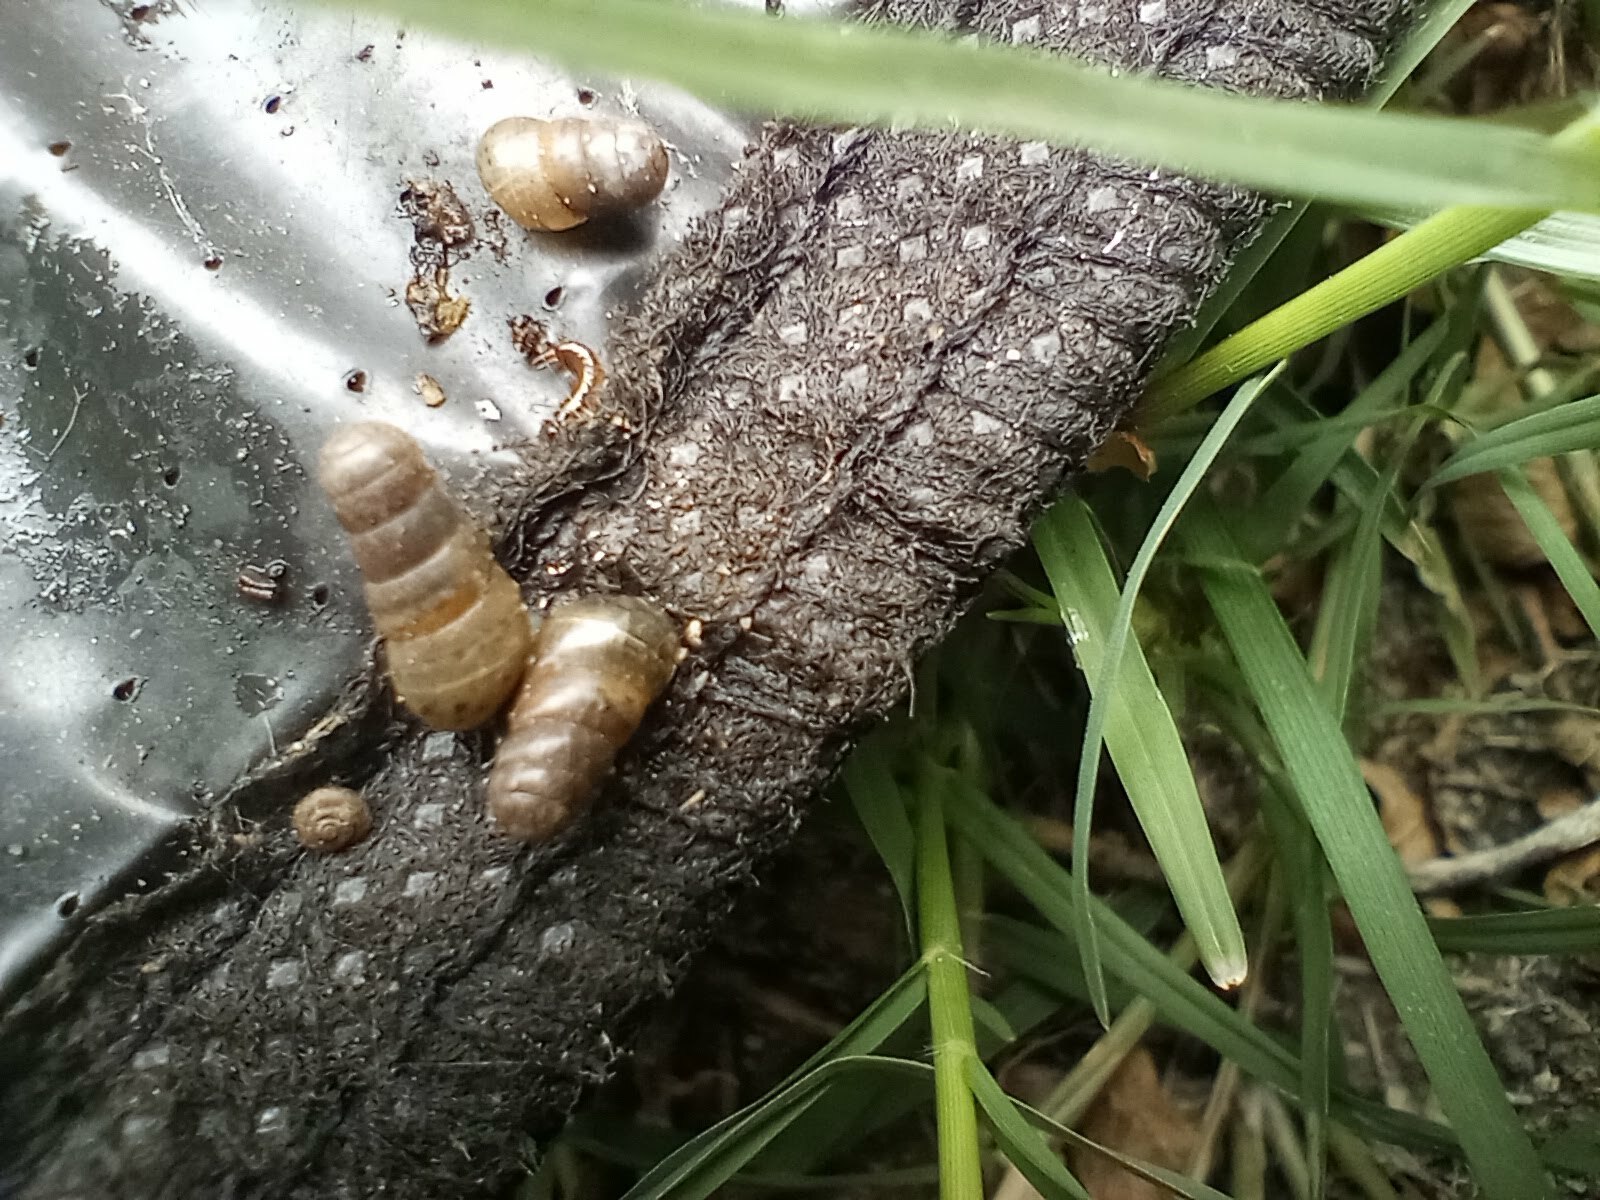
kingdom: Animalia
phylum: Mollusca
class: Gastropoda
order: Stylommatophora
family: Achatinidae
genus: Rumina
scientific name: Rumina decollata
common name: Decollate snail
